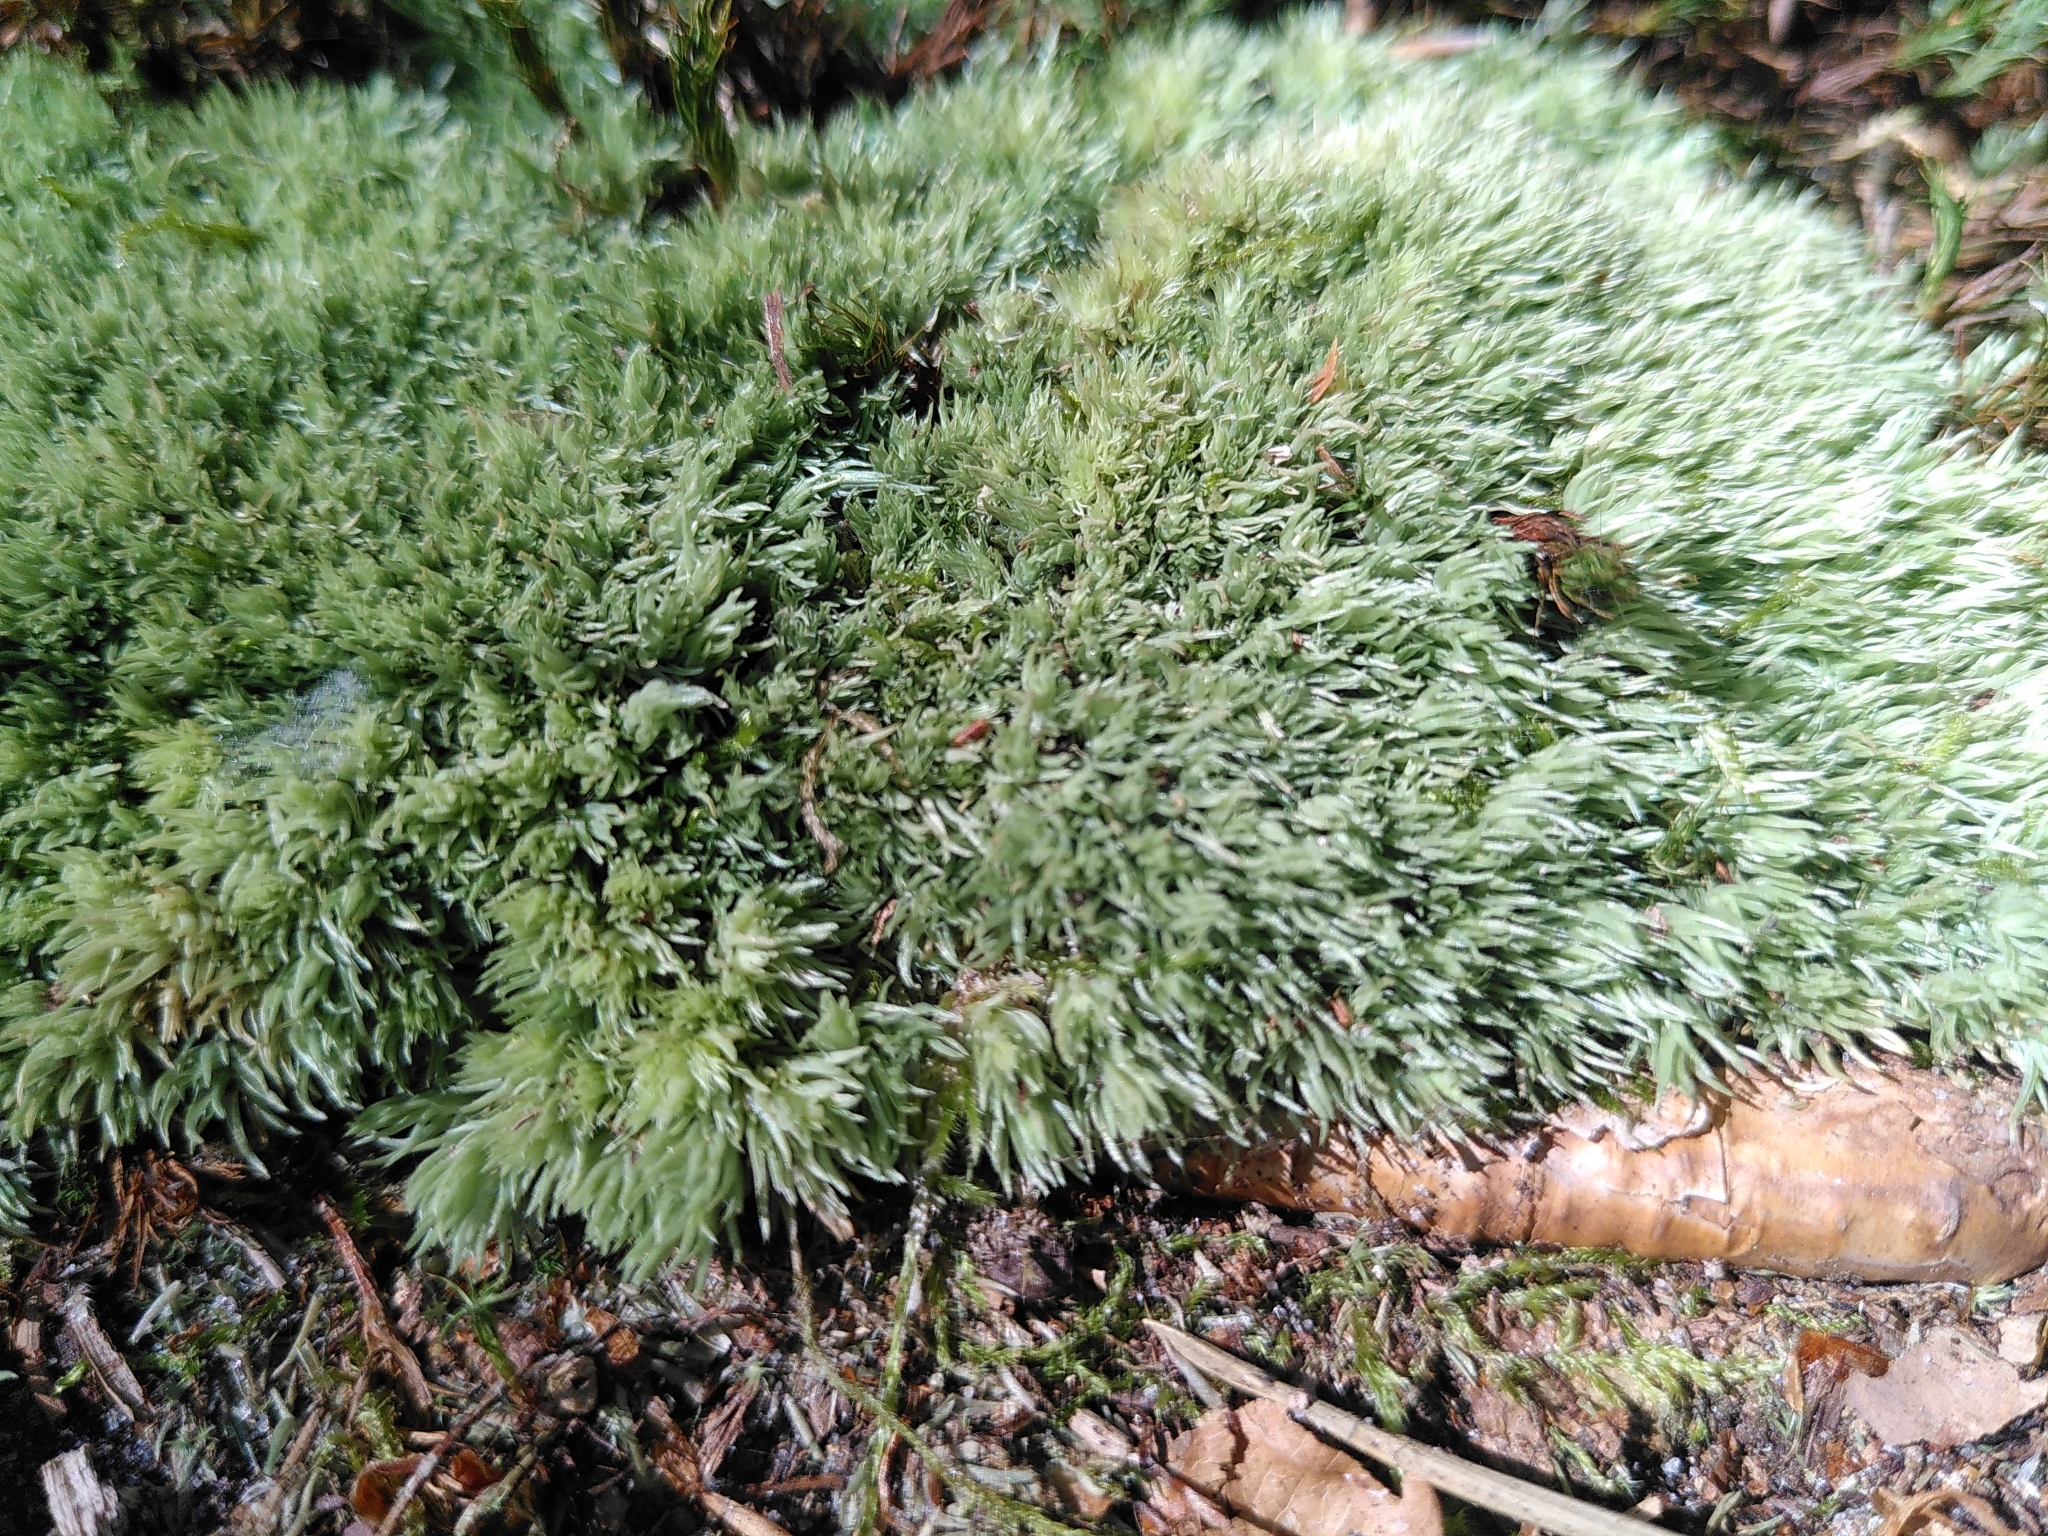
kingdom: Plantae
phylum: Bryophyta
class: Bryopsida
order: Dicranales
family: Leucobryaceae
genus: Leucobryum
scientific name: Leucobryum glaucum
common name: Large white-moss
